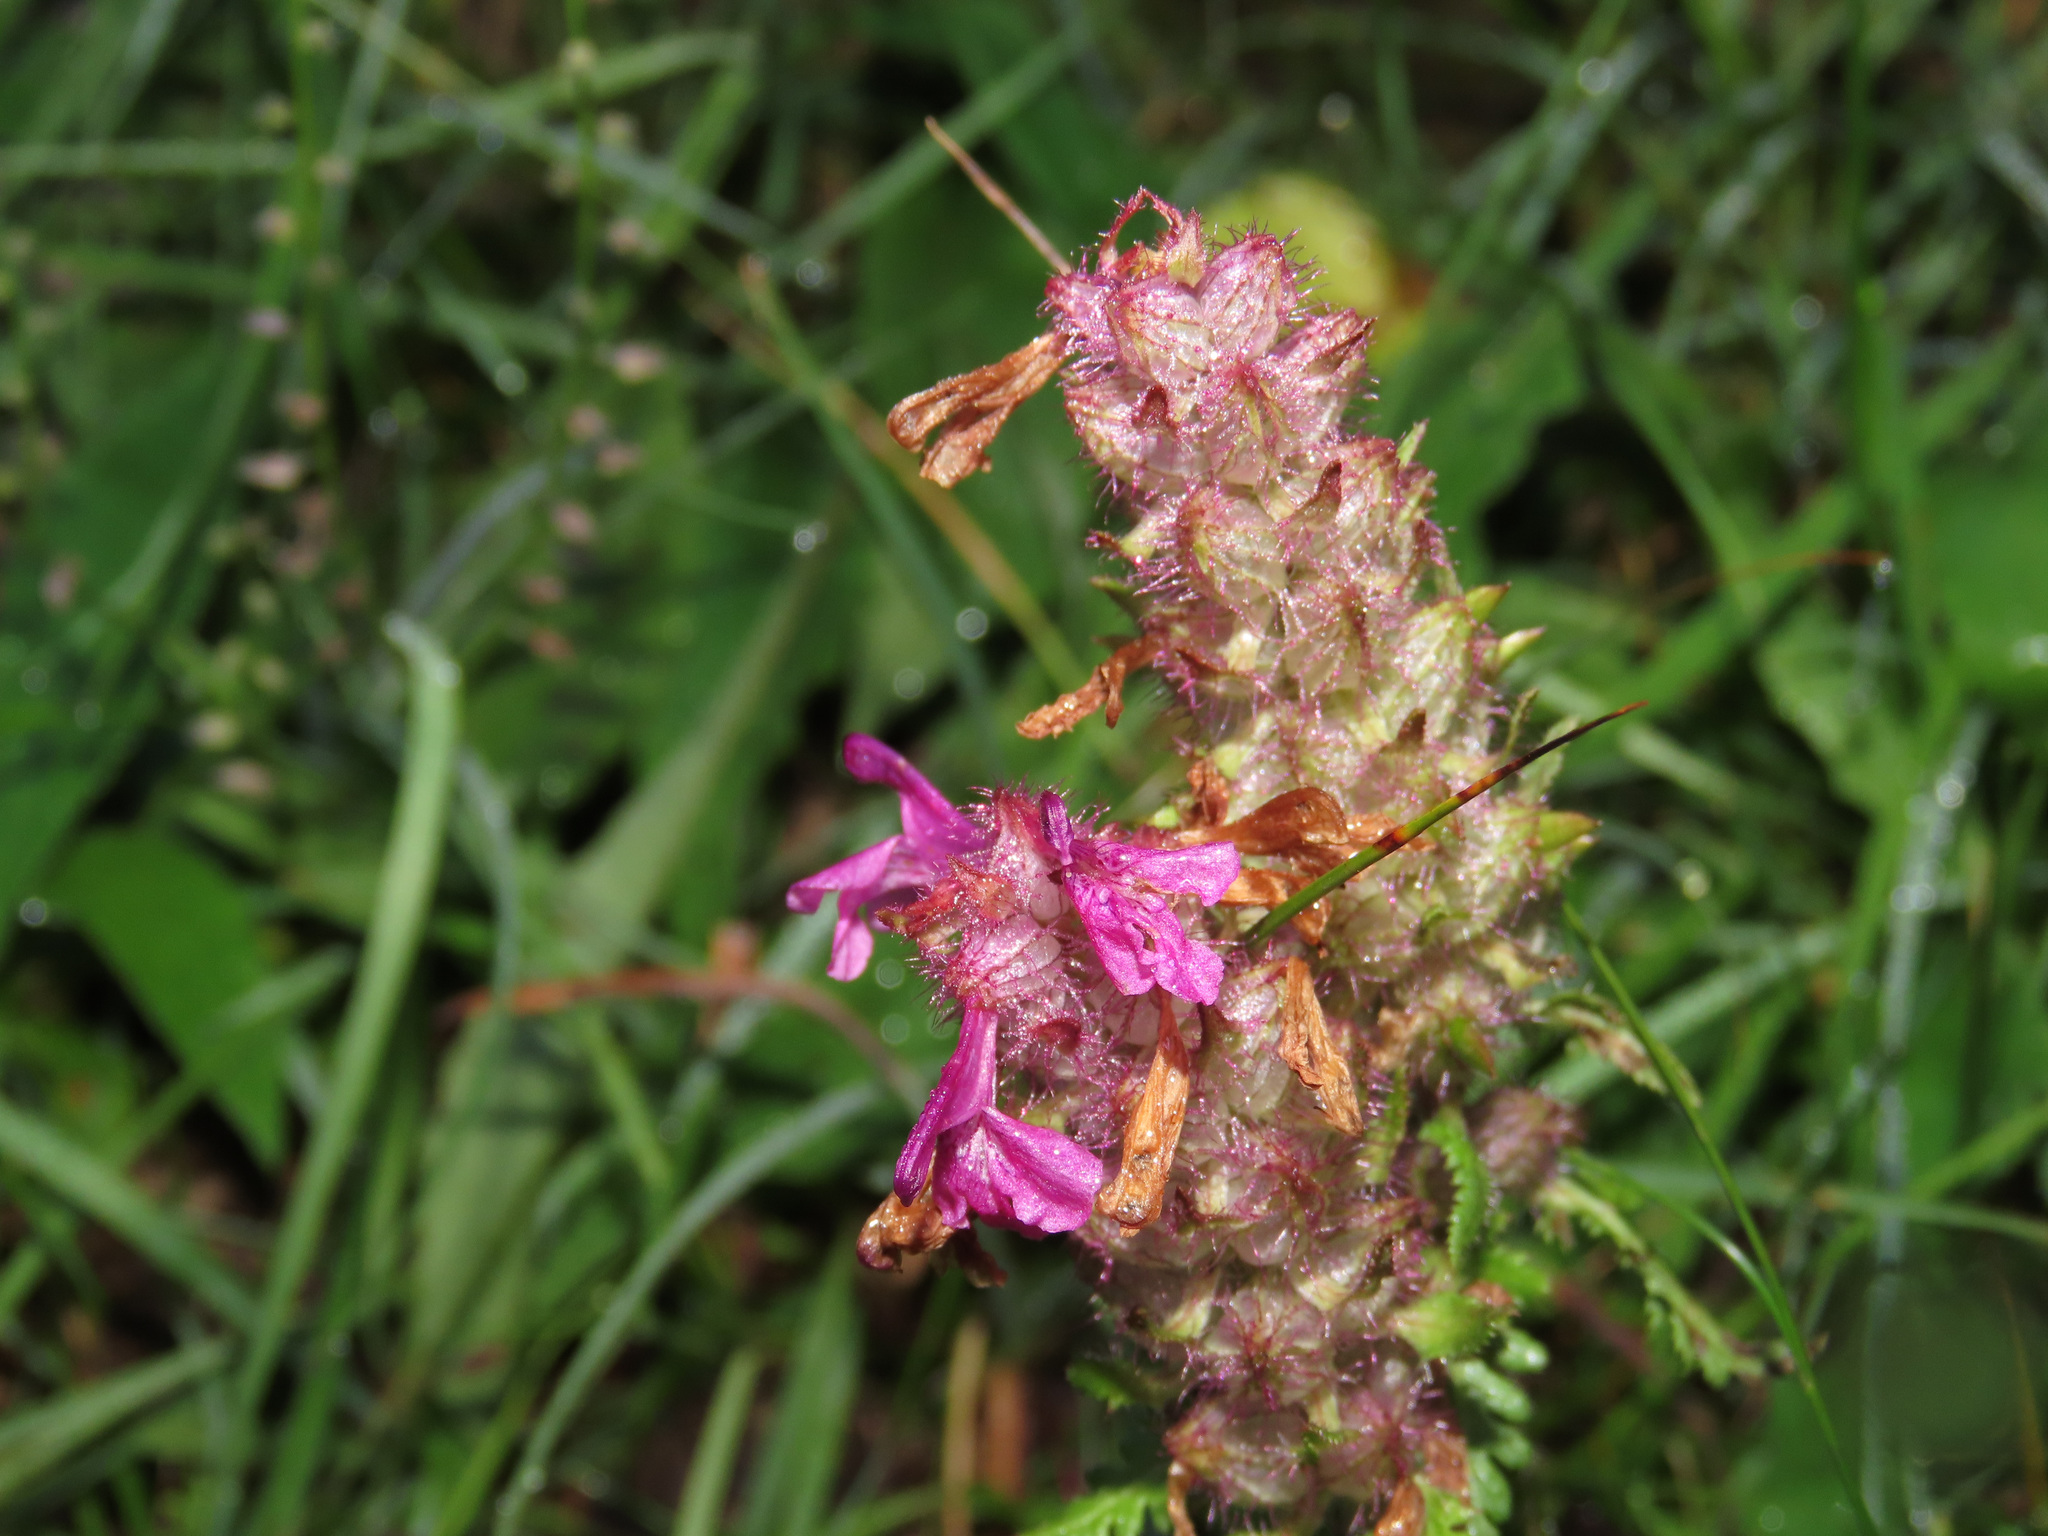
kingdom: Plantae
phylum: Tracheophyta
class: Magnoliopsida
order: Lamiales
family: Orobanchaceae
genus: Pedicularis
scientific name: Pedicularis verticillata
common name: Whorled lousewort
